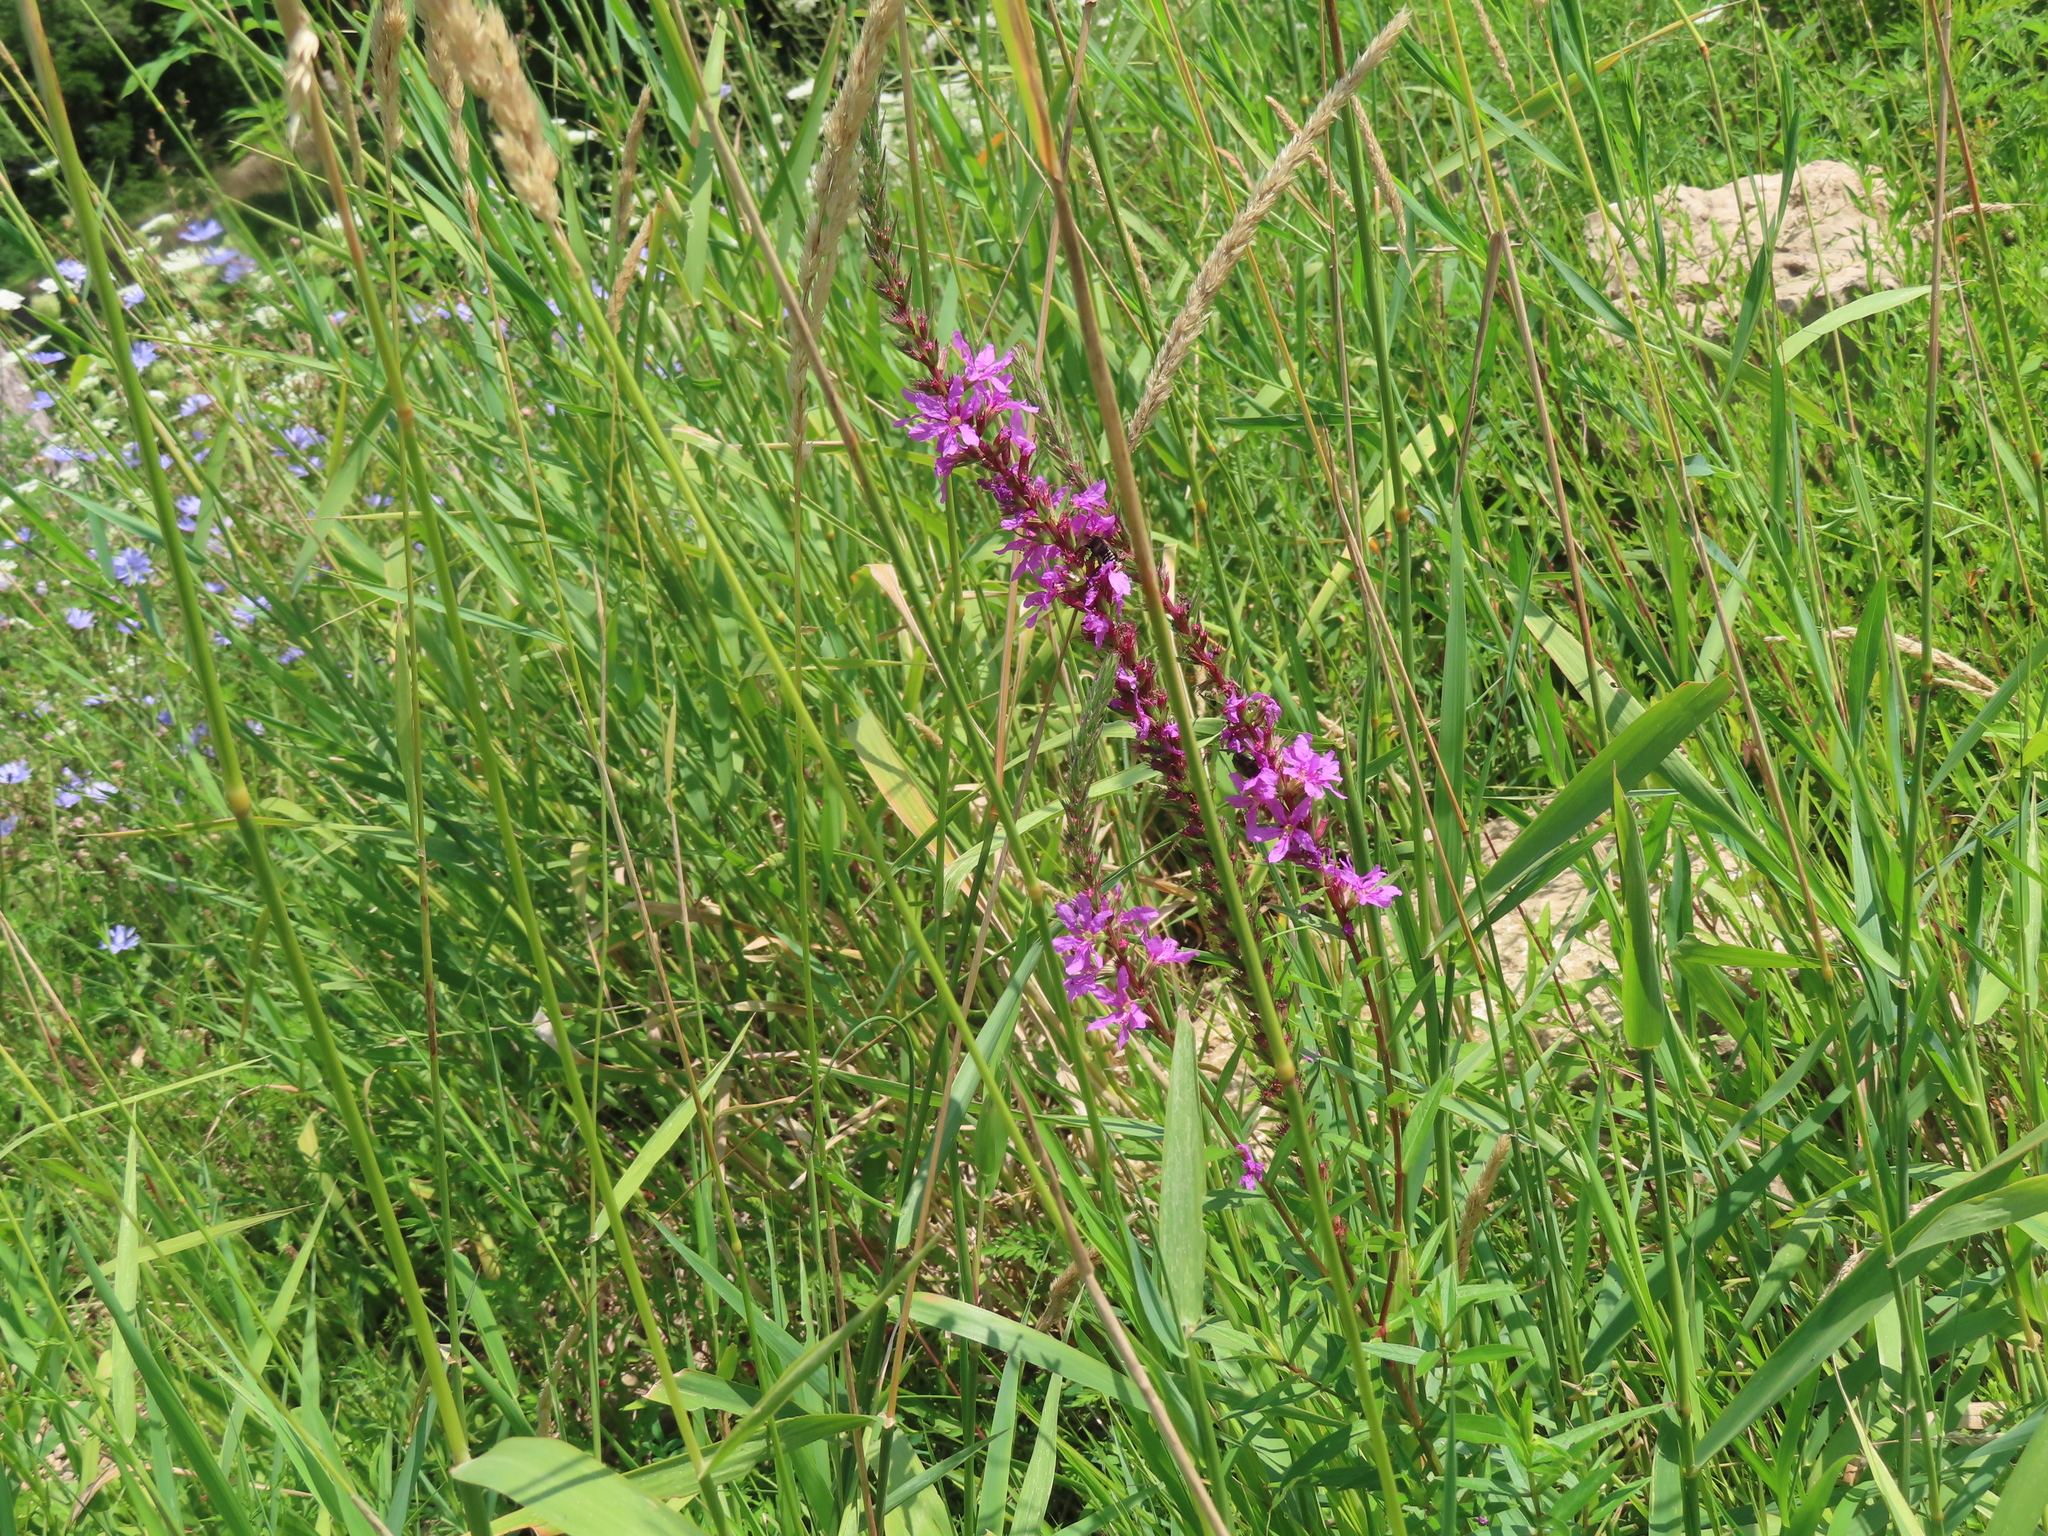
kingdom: Plantae
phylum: Tracheophyta
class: Magnoliopsida
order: Myrtales
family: Lythraceae
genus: Lythrum
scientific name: Lythrum salicaria
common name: Purple loosestrife
